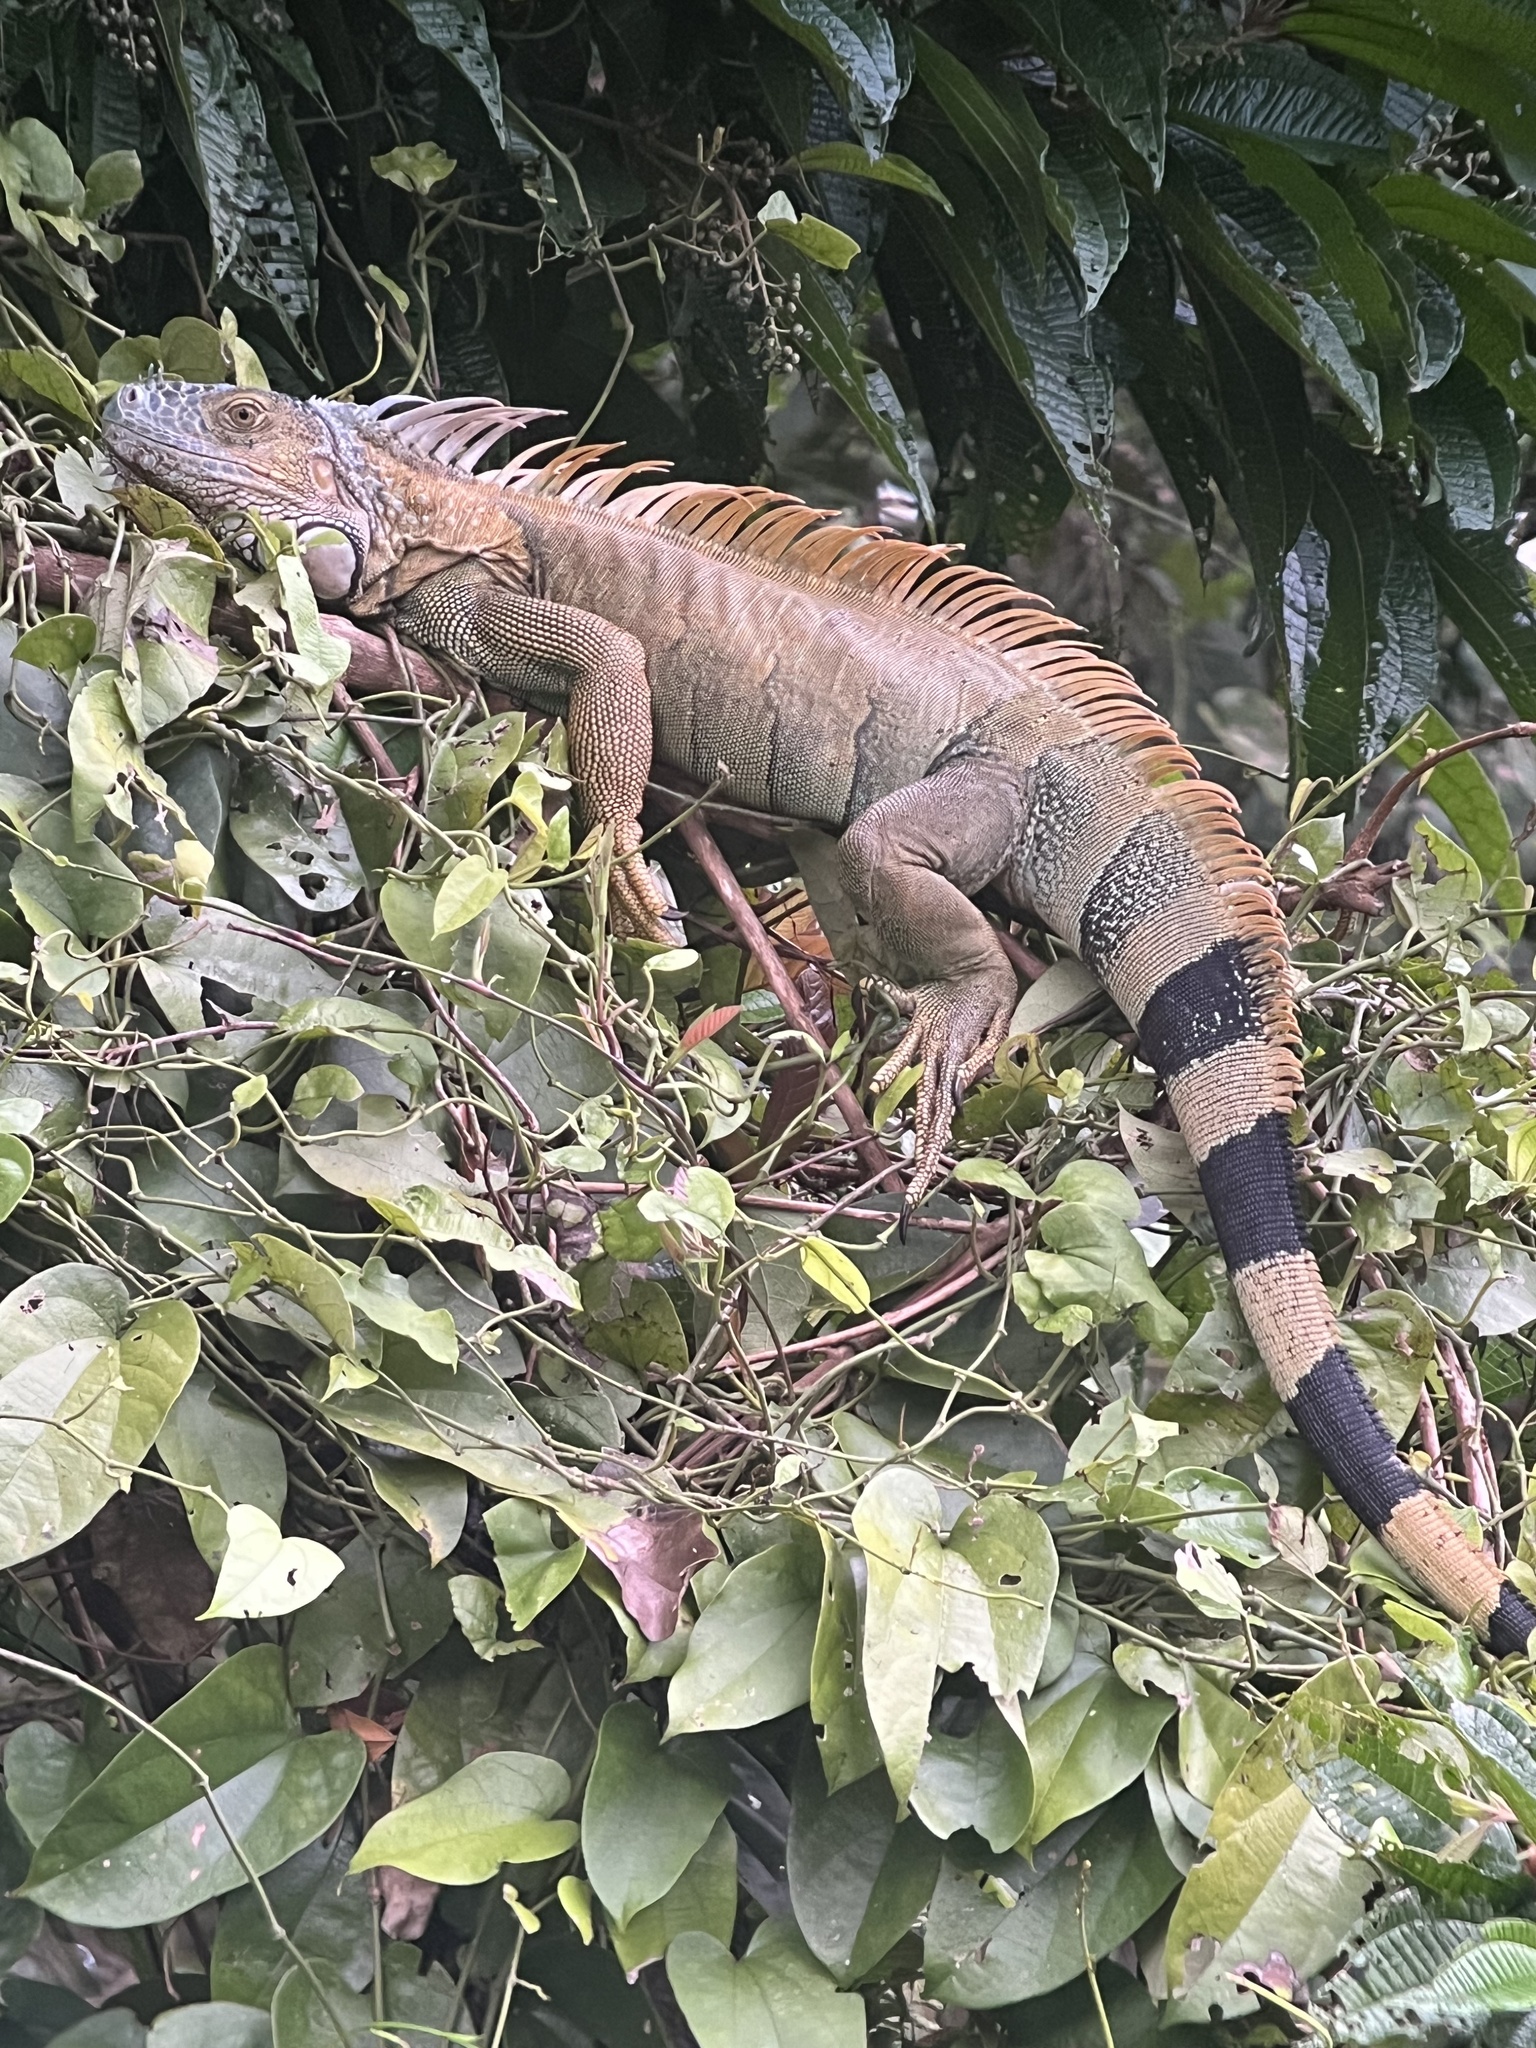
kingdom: Animalia
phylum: Chordata
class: Squamata
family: Iguanidae
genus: Iguana
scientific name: Iguana iguana
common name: Green iguana
